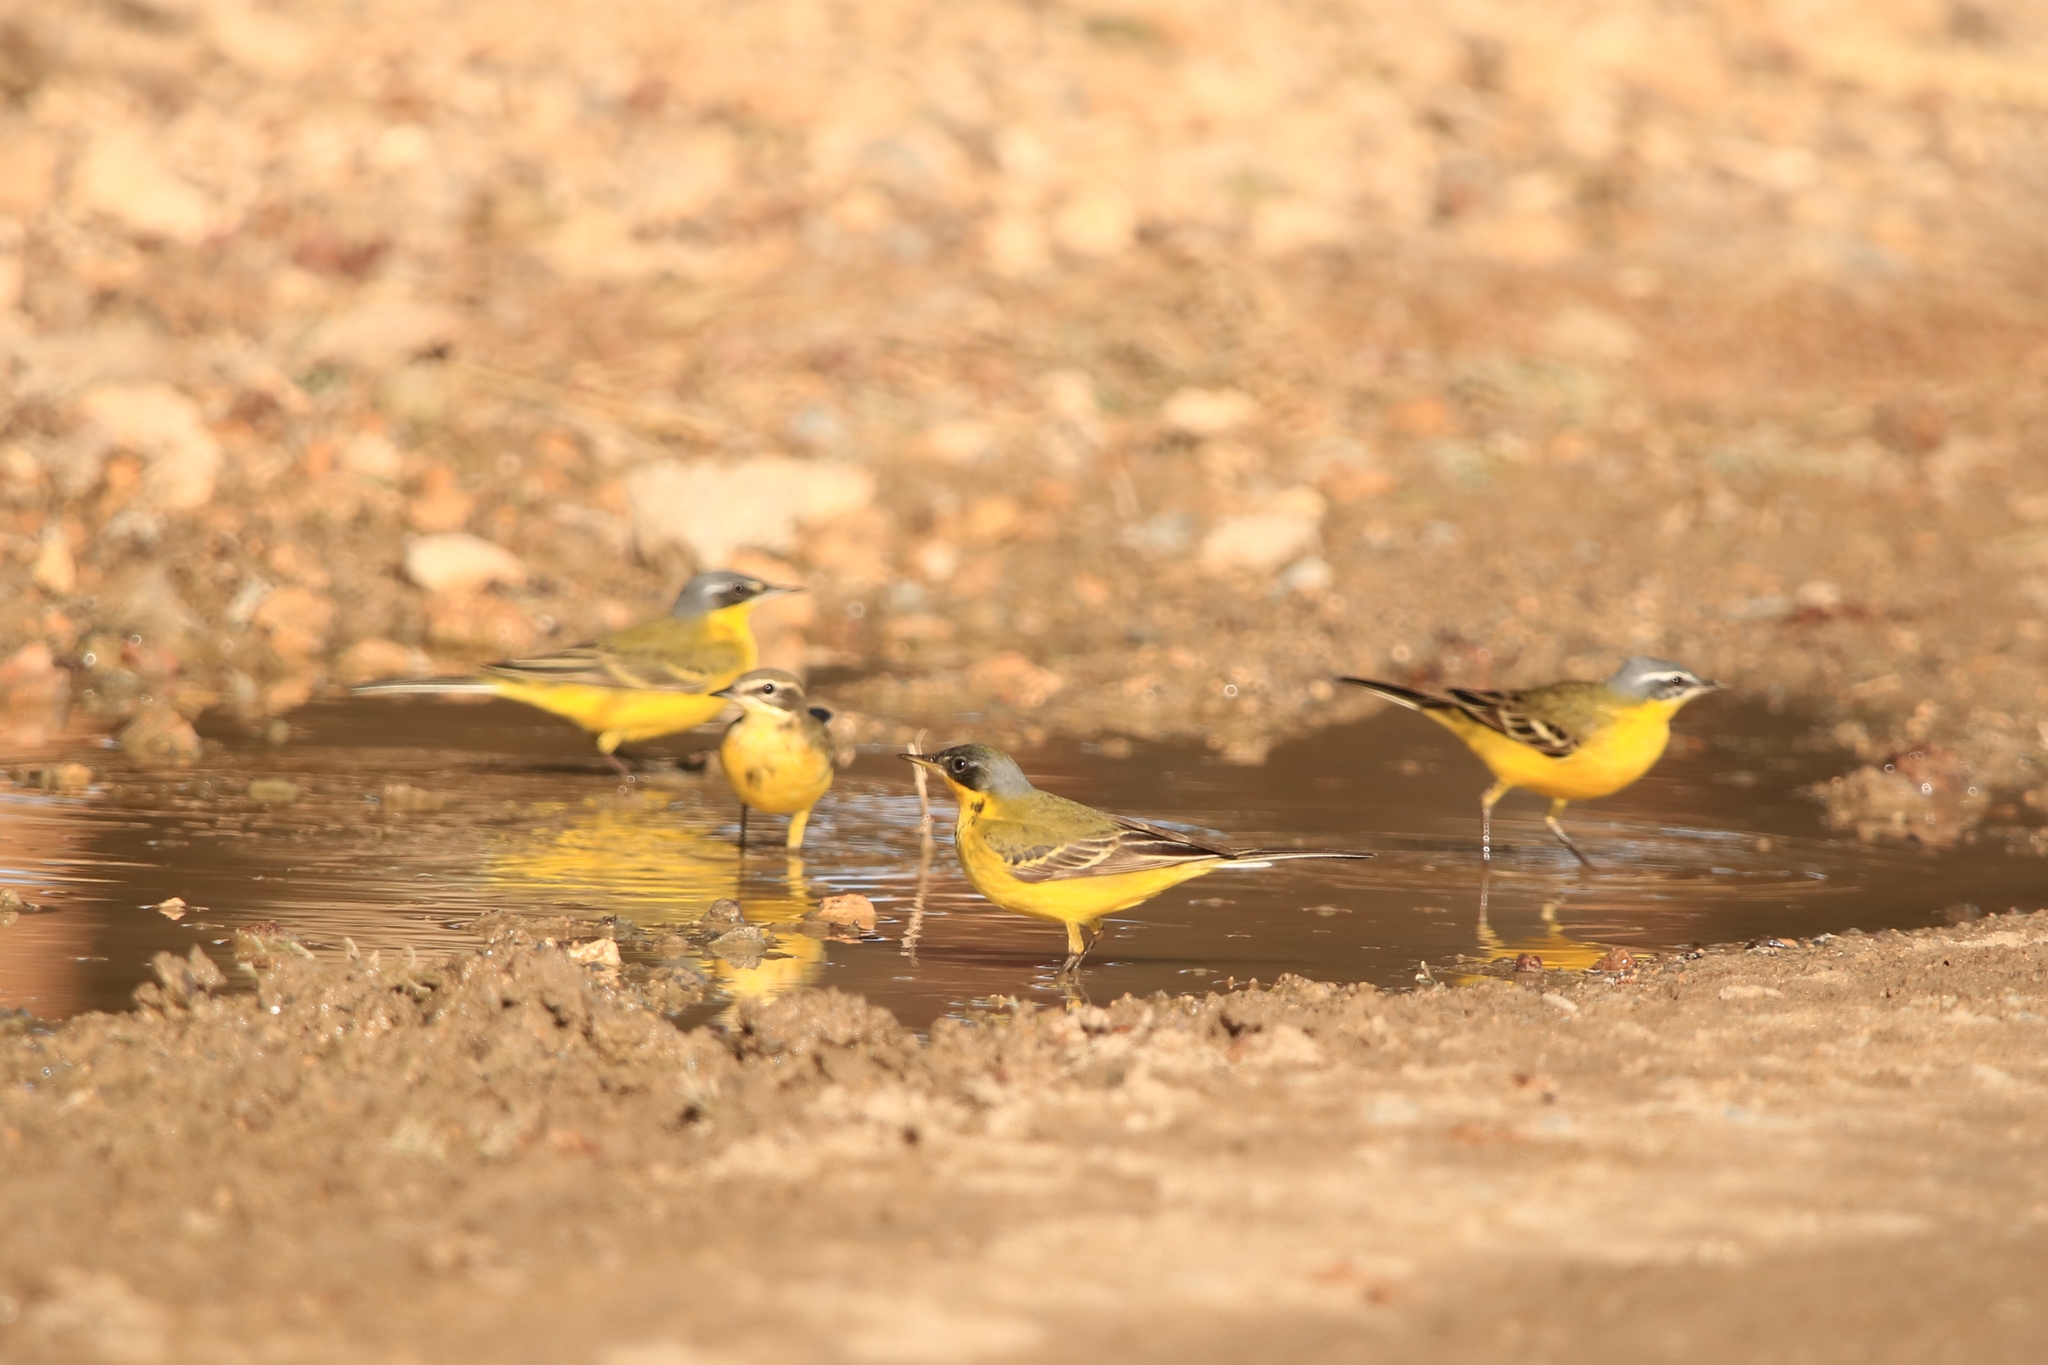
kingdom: Animalia
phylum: Chordata
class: Aves
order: Passeriformes
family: Motacillidae
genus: Motacilla
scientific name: Motacilla flava
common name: Western yellow wagtail
